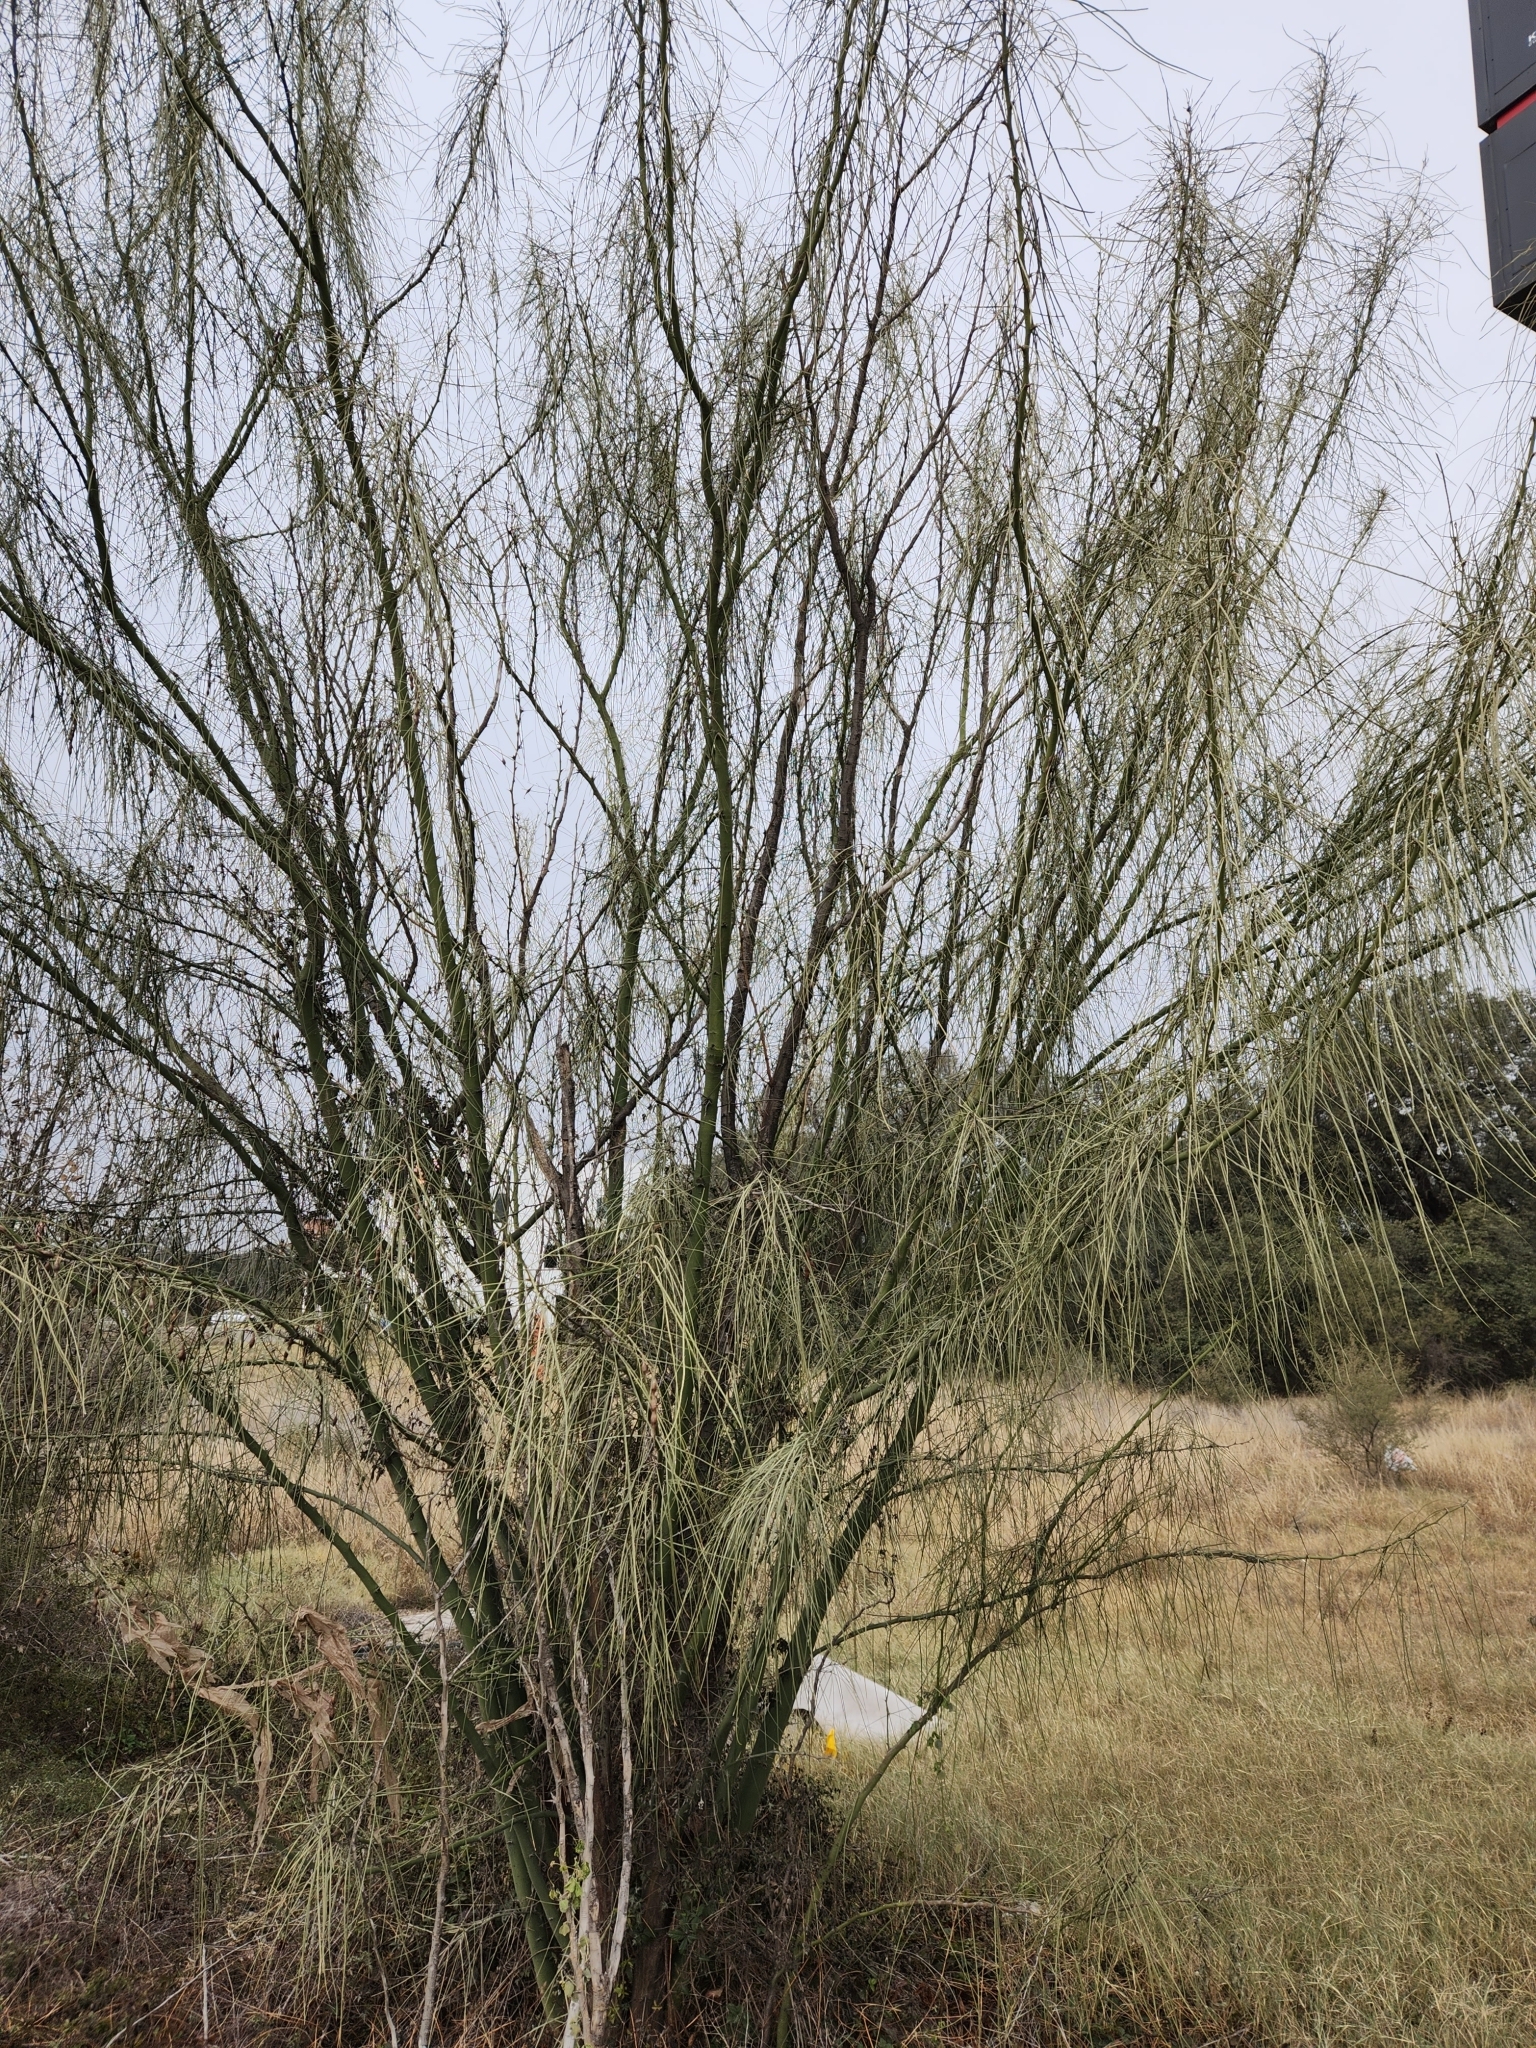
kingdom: Plantae
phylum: Tracheophyta
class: Magnoliopsida
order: Fabales
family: Fabaceae
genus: Parkinsonia
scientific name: Parkinsonia aculeata
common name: Jerusalem thorn
